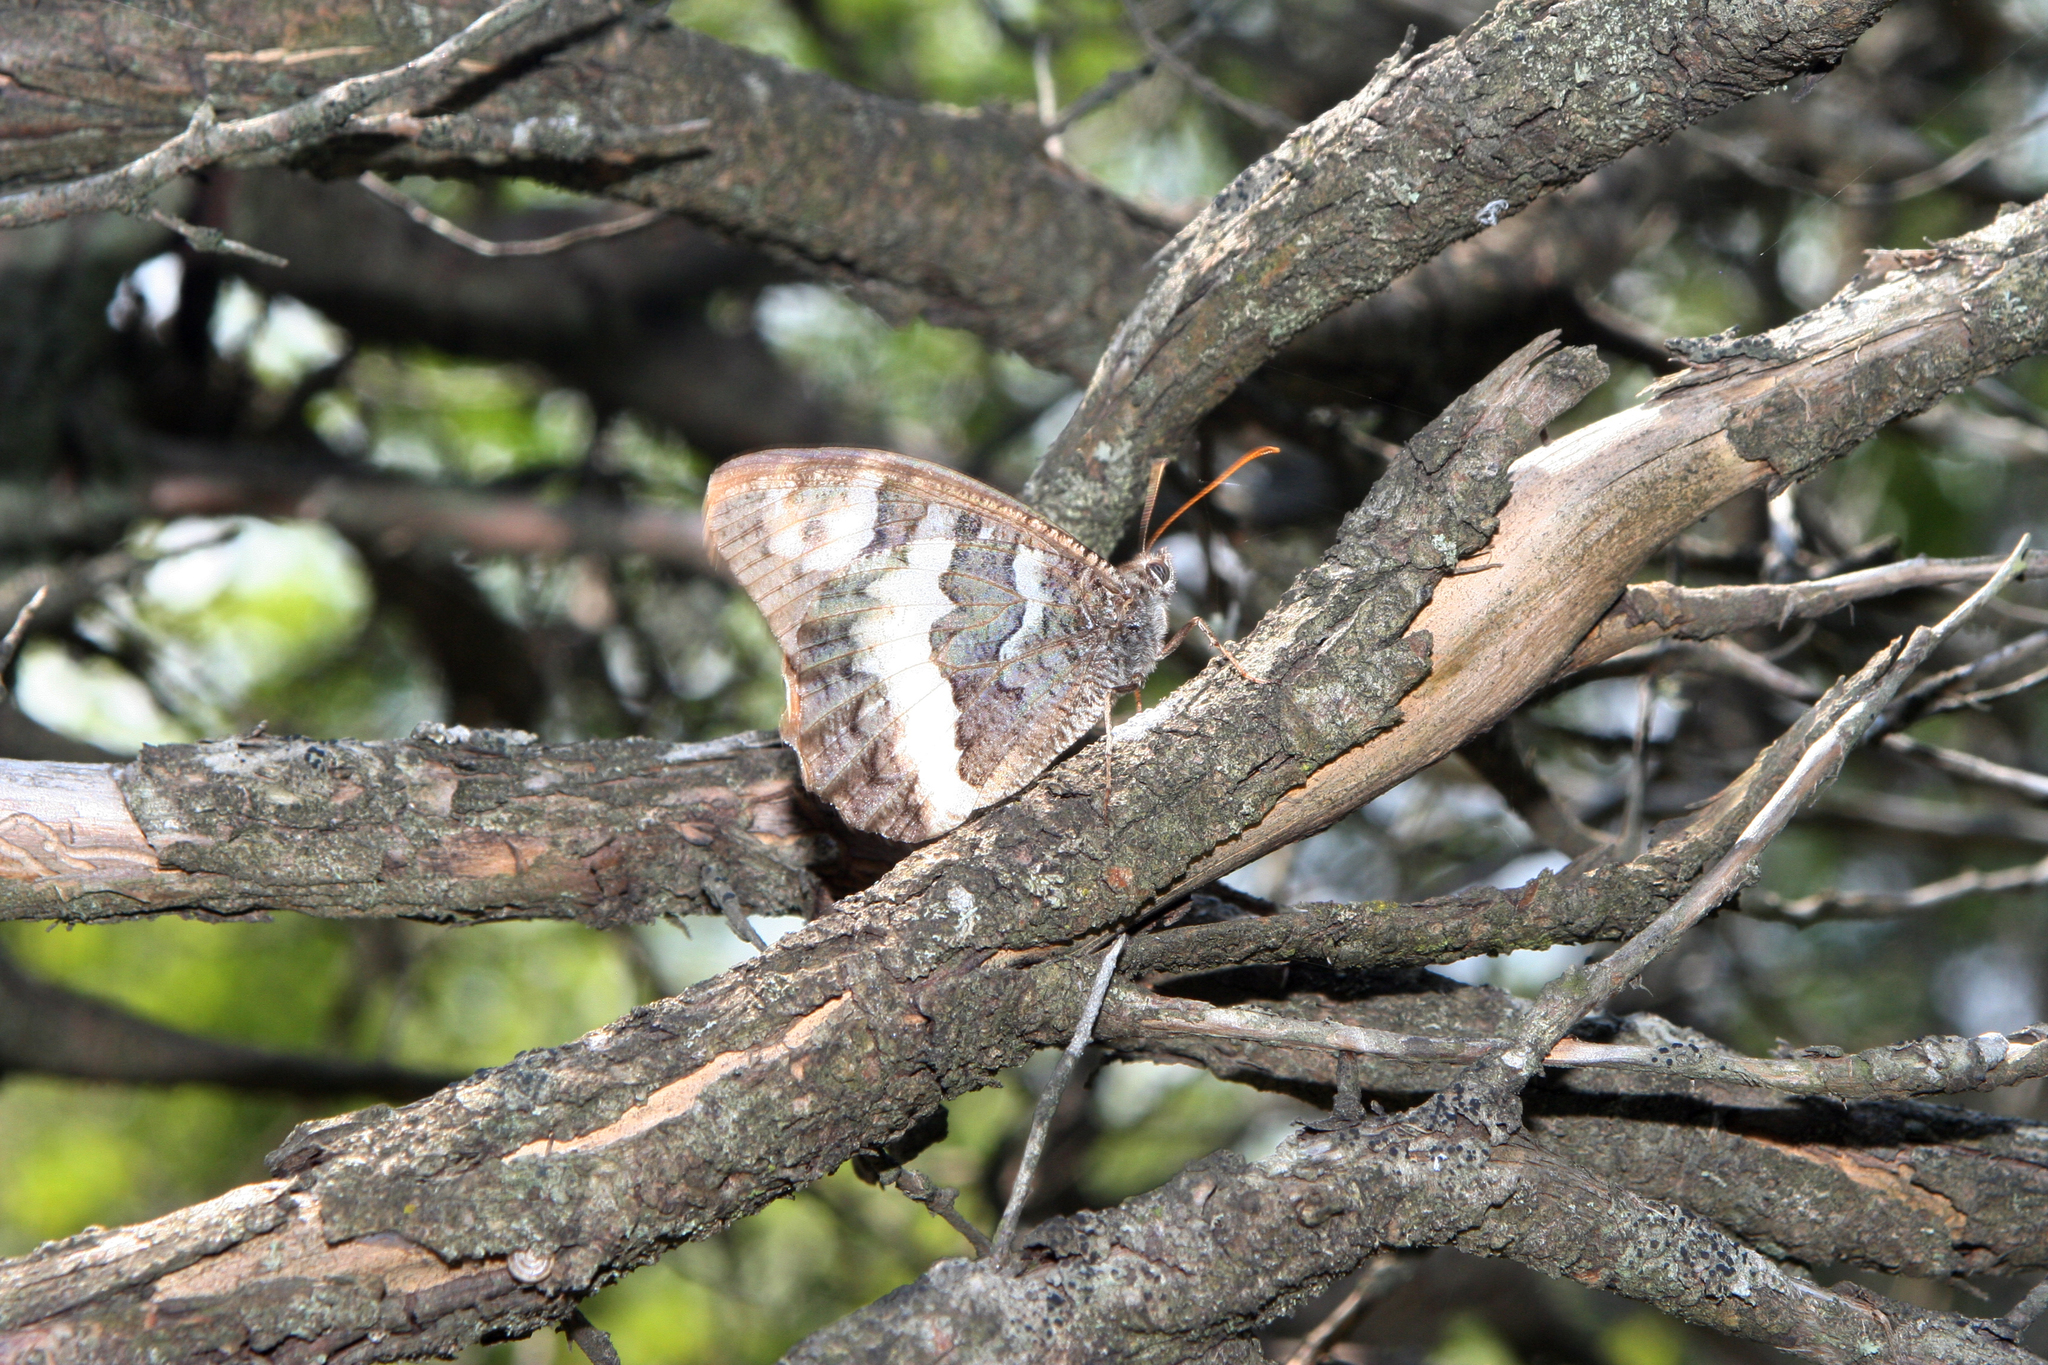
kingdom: Animalia
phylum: Arthropoda
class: Insecta
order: Lepidoptera
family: Lycaenidae
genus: Loweia
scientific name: Loweia tityrus
